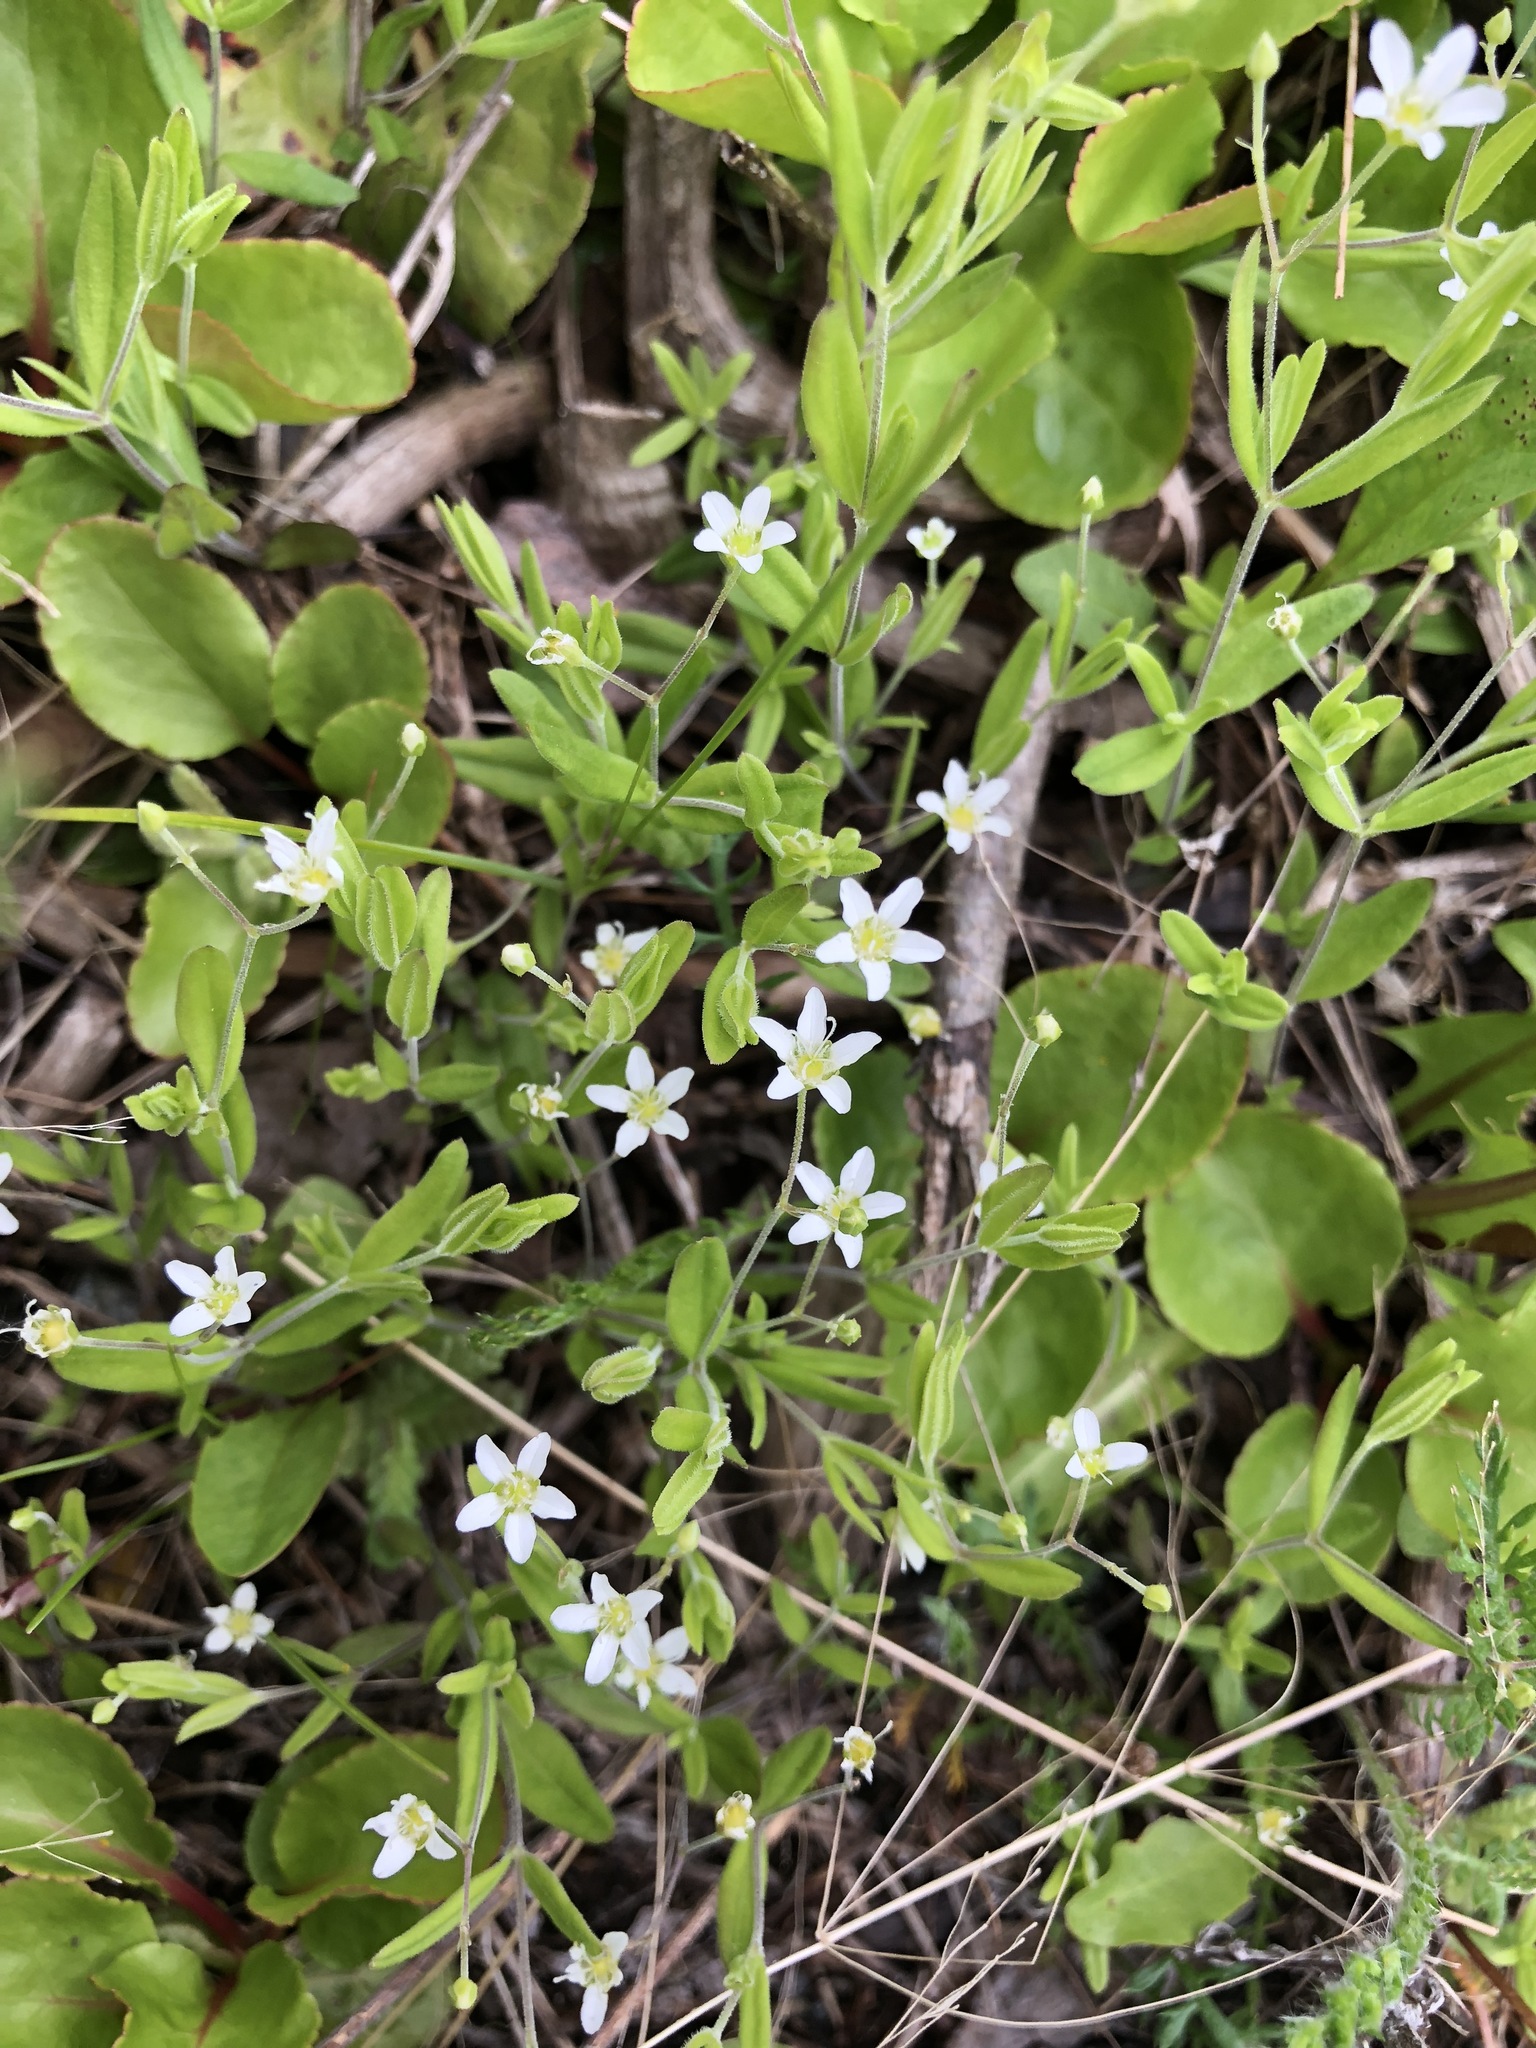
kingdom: Plantae
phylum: Tracheophyta
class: Magnoliopsida
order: Caryophyllales
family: Caryophyllaceae
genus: Moehringia
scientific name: Moehringia lateriflora
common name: Blunt-leaved sandwort
